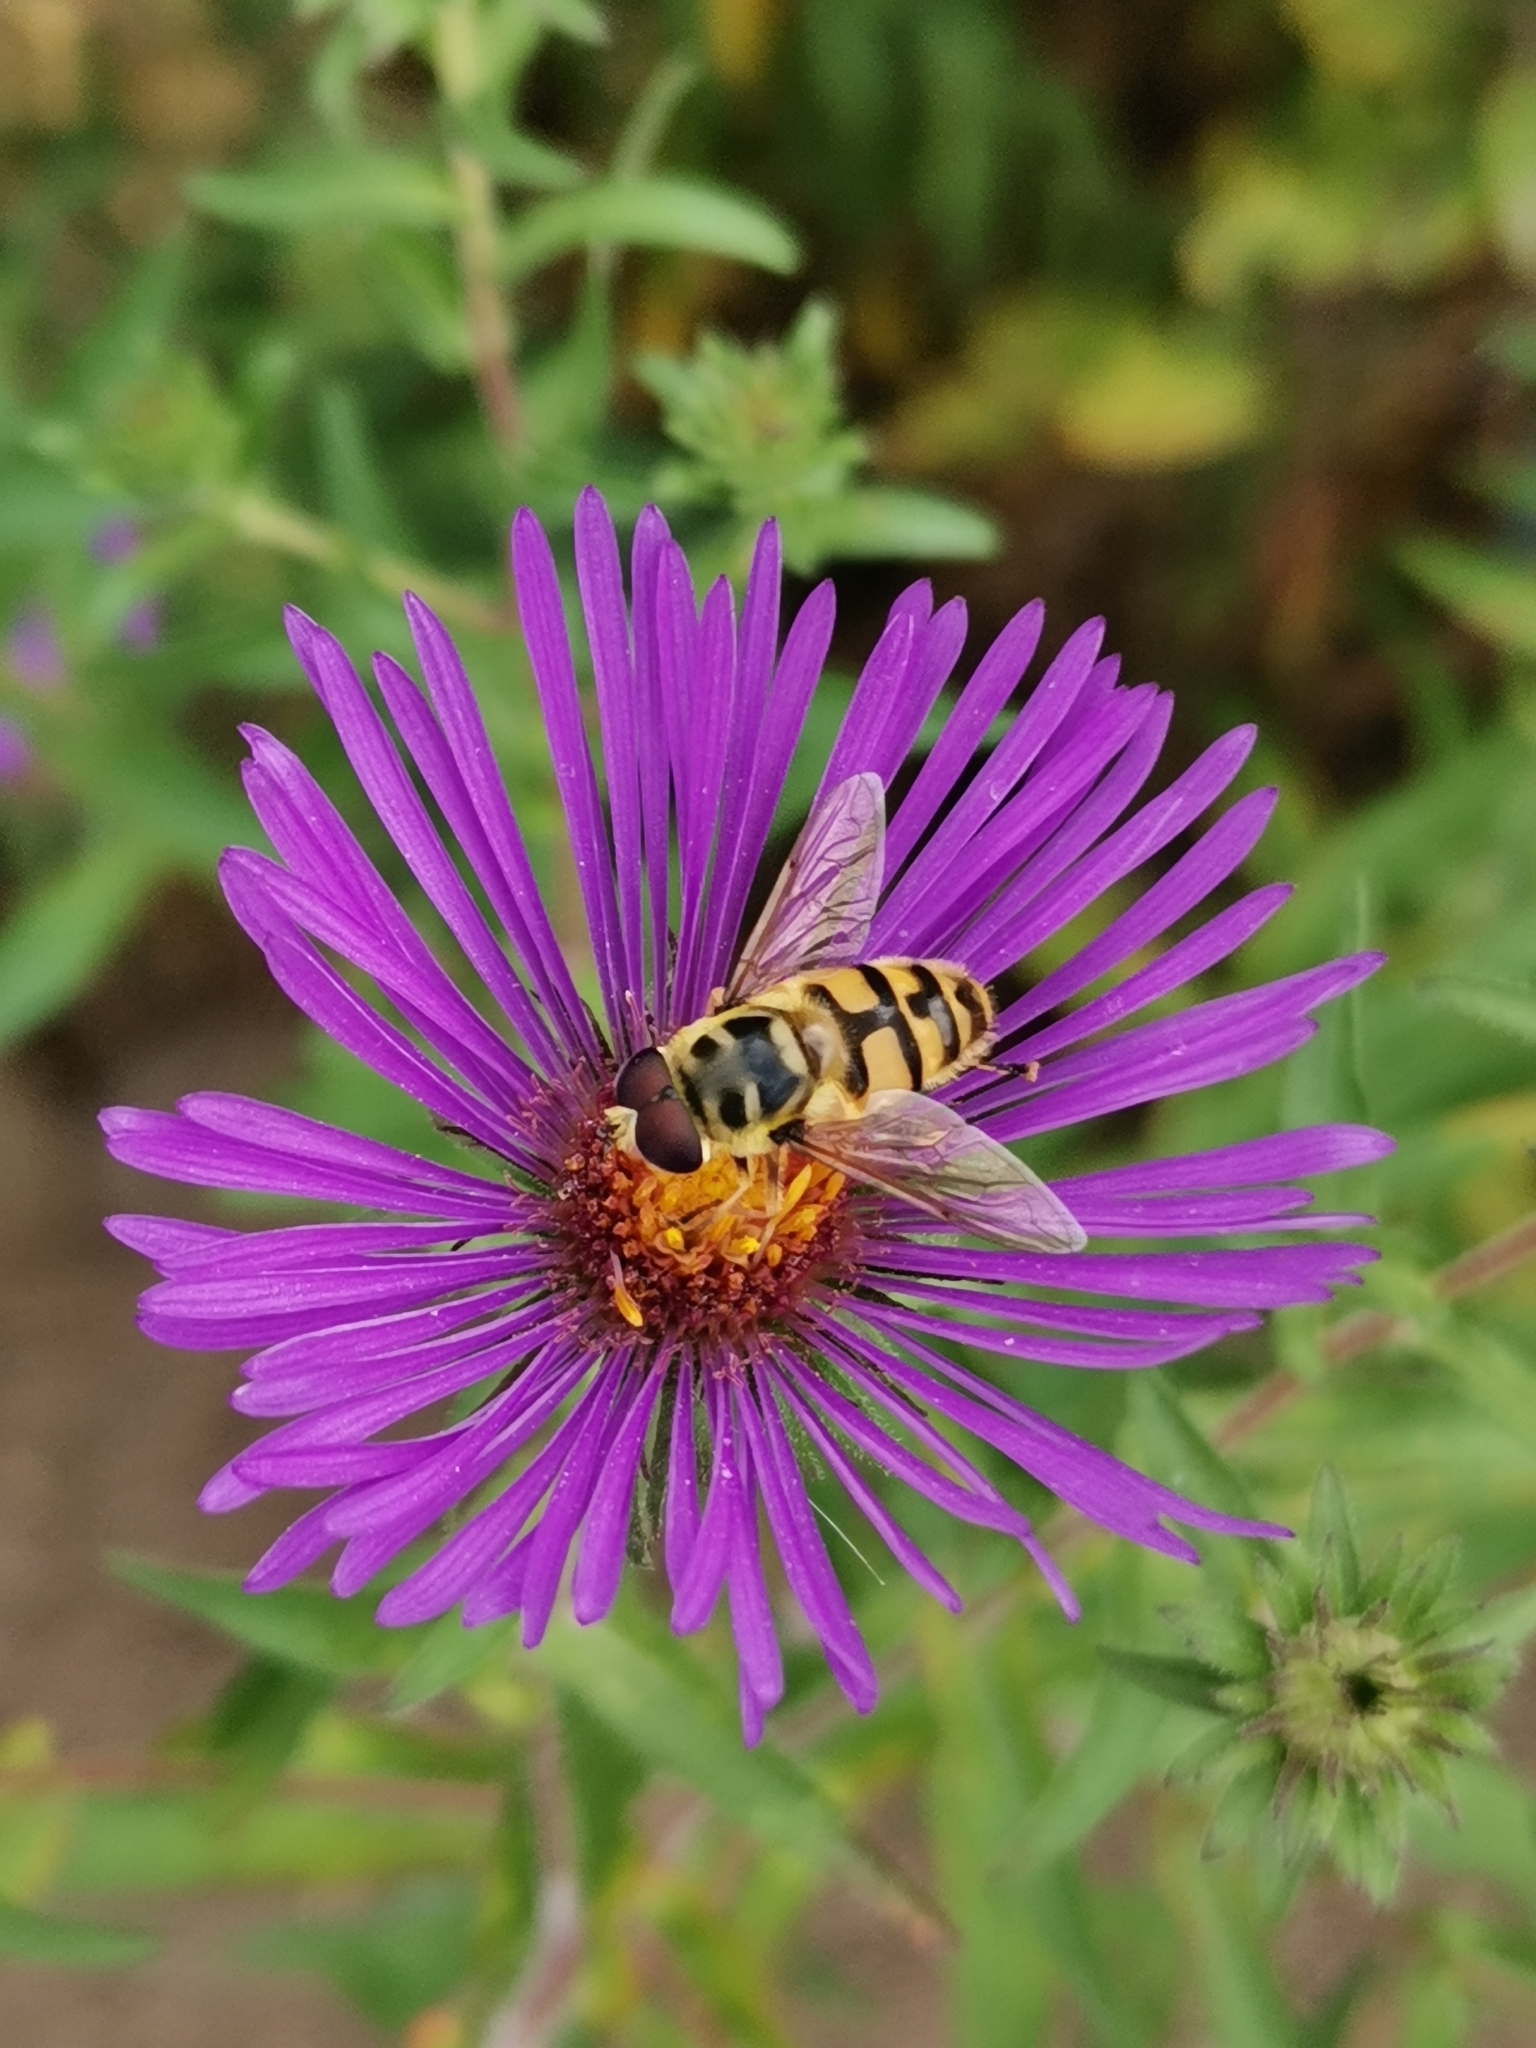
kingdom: Animalia
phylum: Arthropoda
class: Insecta
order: Diptera
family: Syrphidae
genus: Myathropa
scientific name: Myathropa florea
